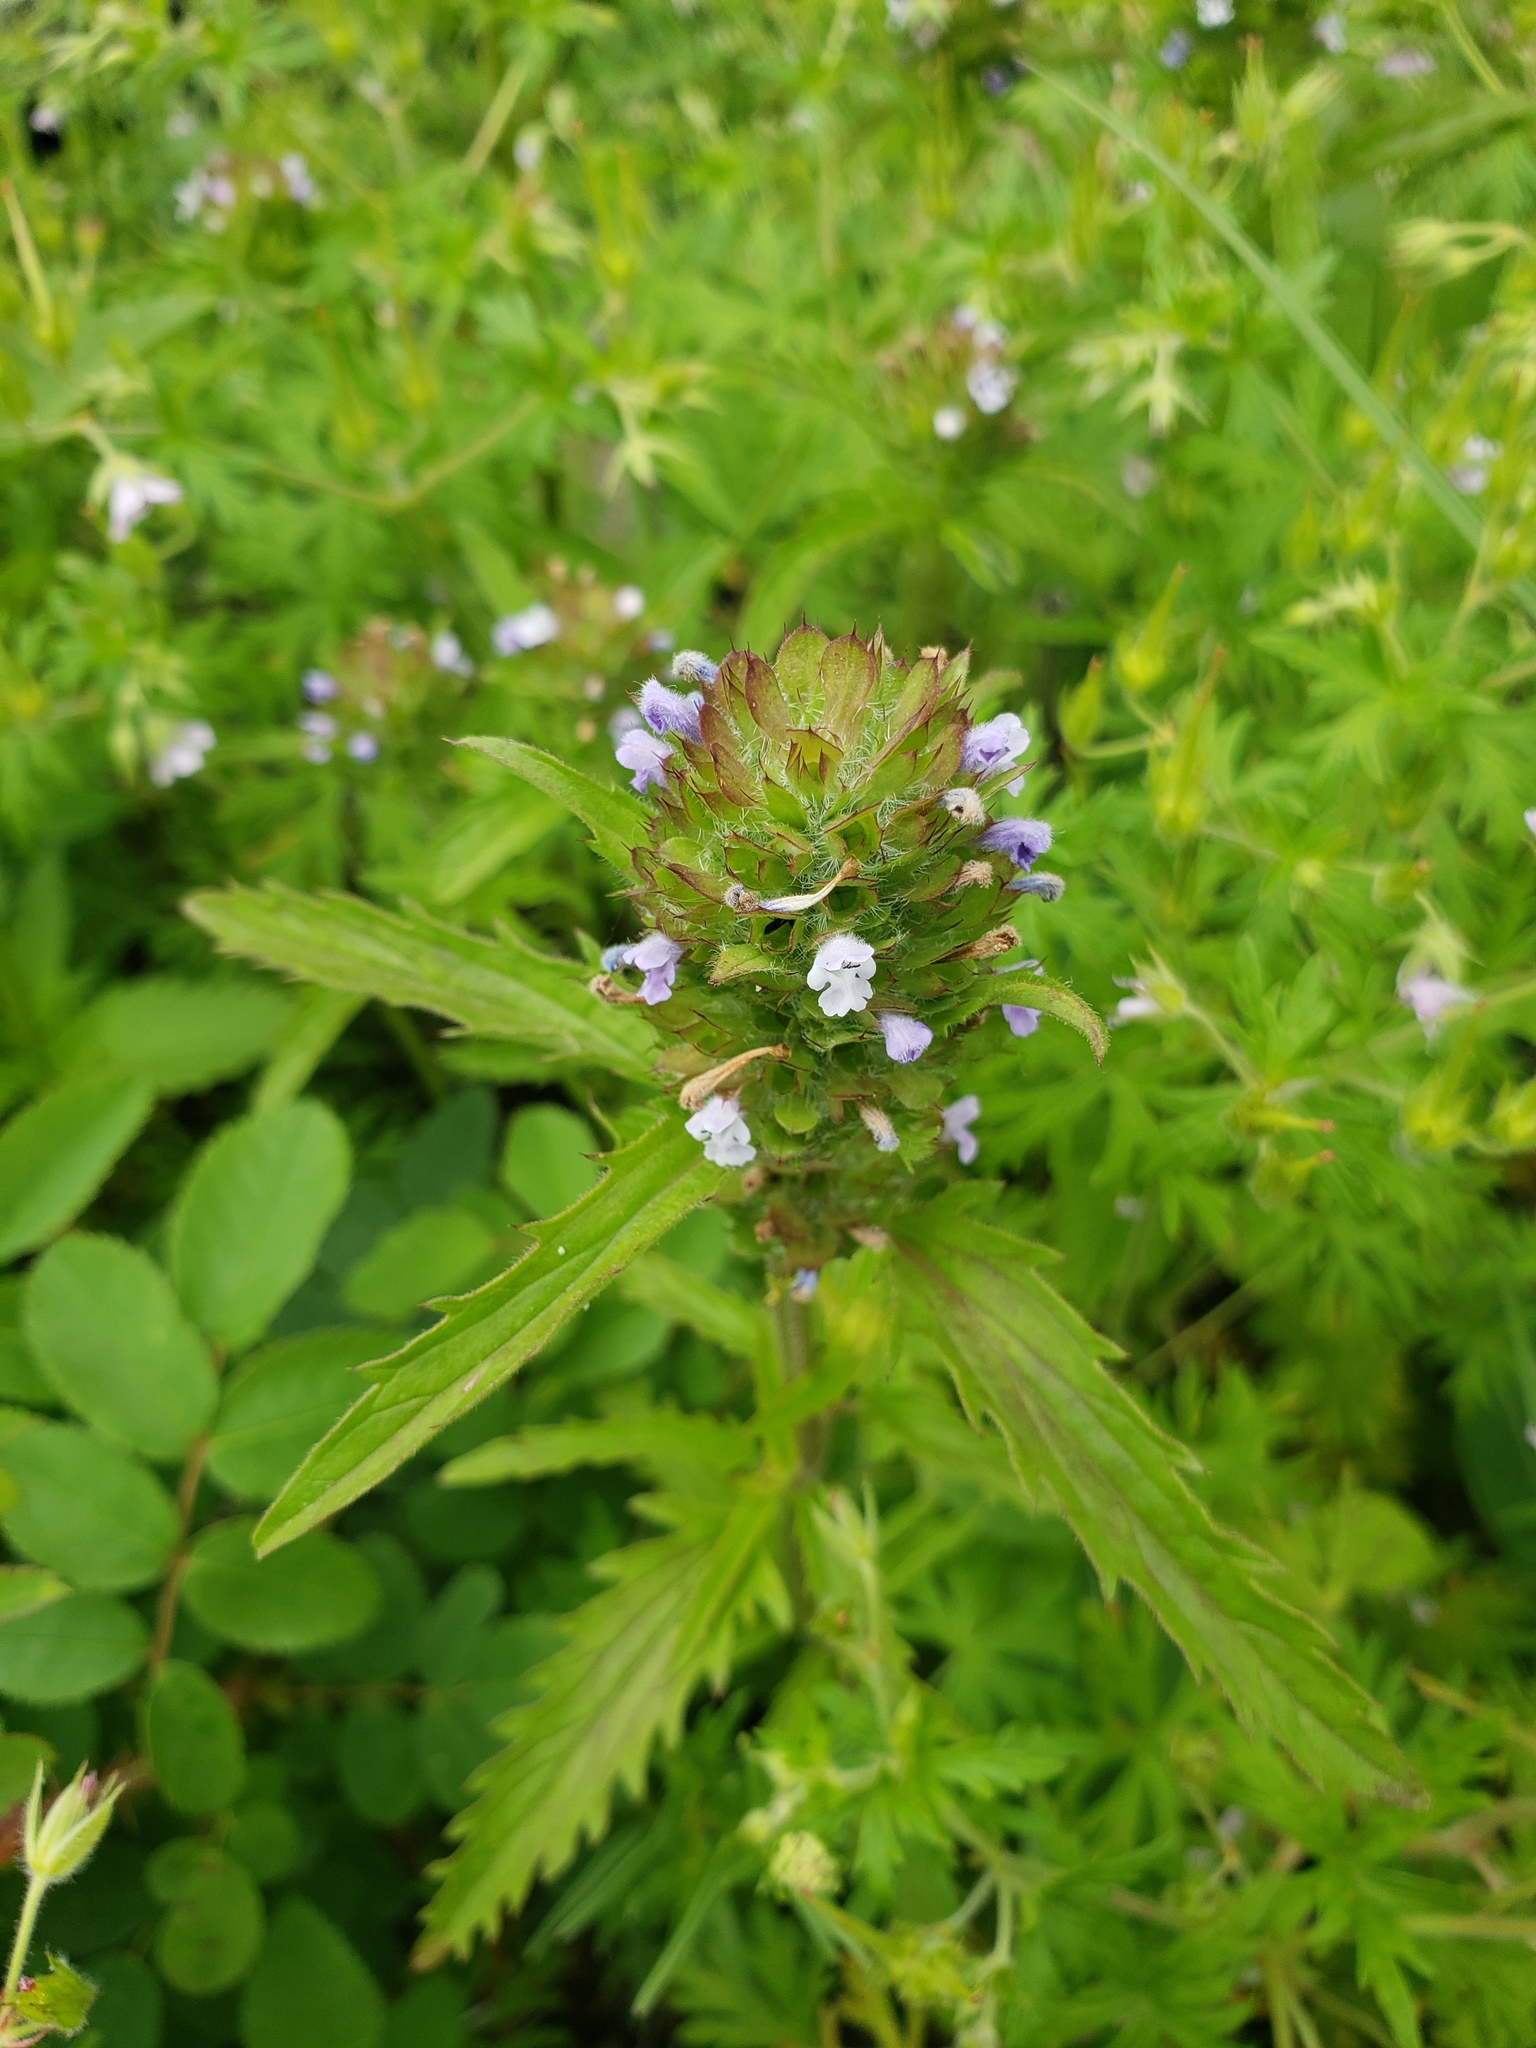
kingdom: Plantae
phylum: Tracheophyta
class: Magnoliopsida
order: Lamiales
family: Lamiaceae
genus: Dracocephalum
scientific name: Dracocephalum parviflorum
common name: American dragonhead
